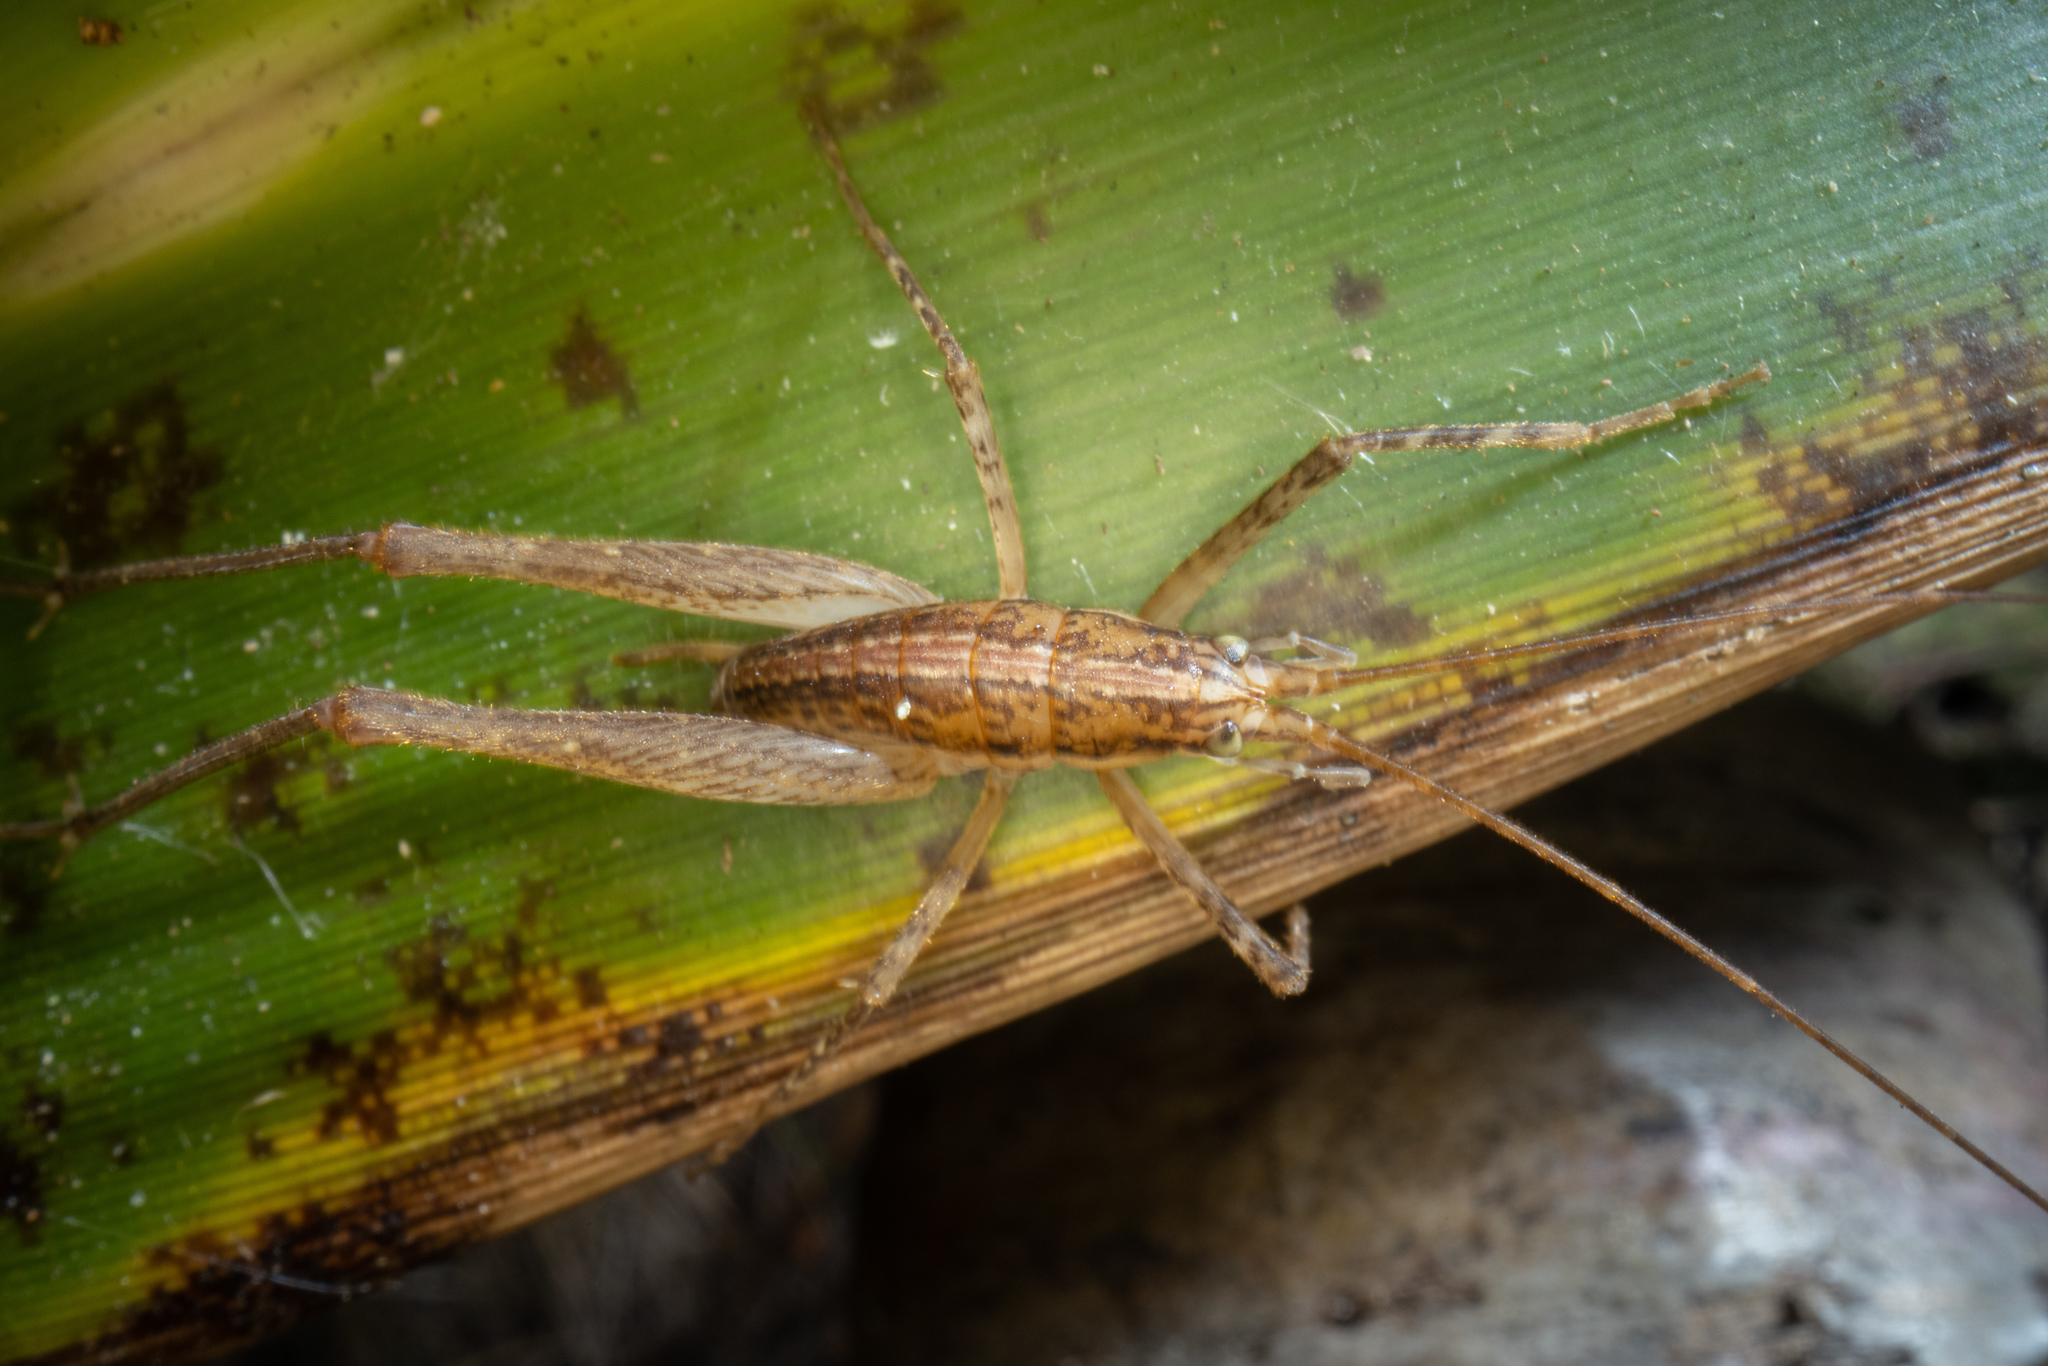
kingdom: Animalia
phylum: Arthropoda
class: Insecta
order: Orthoptera
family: Rhaphidophoridae
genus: Talitropsis
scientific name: Talitropsis poduroides
